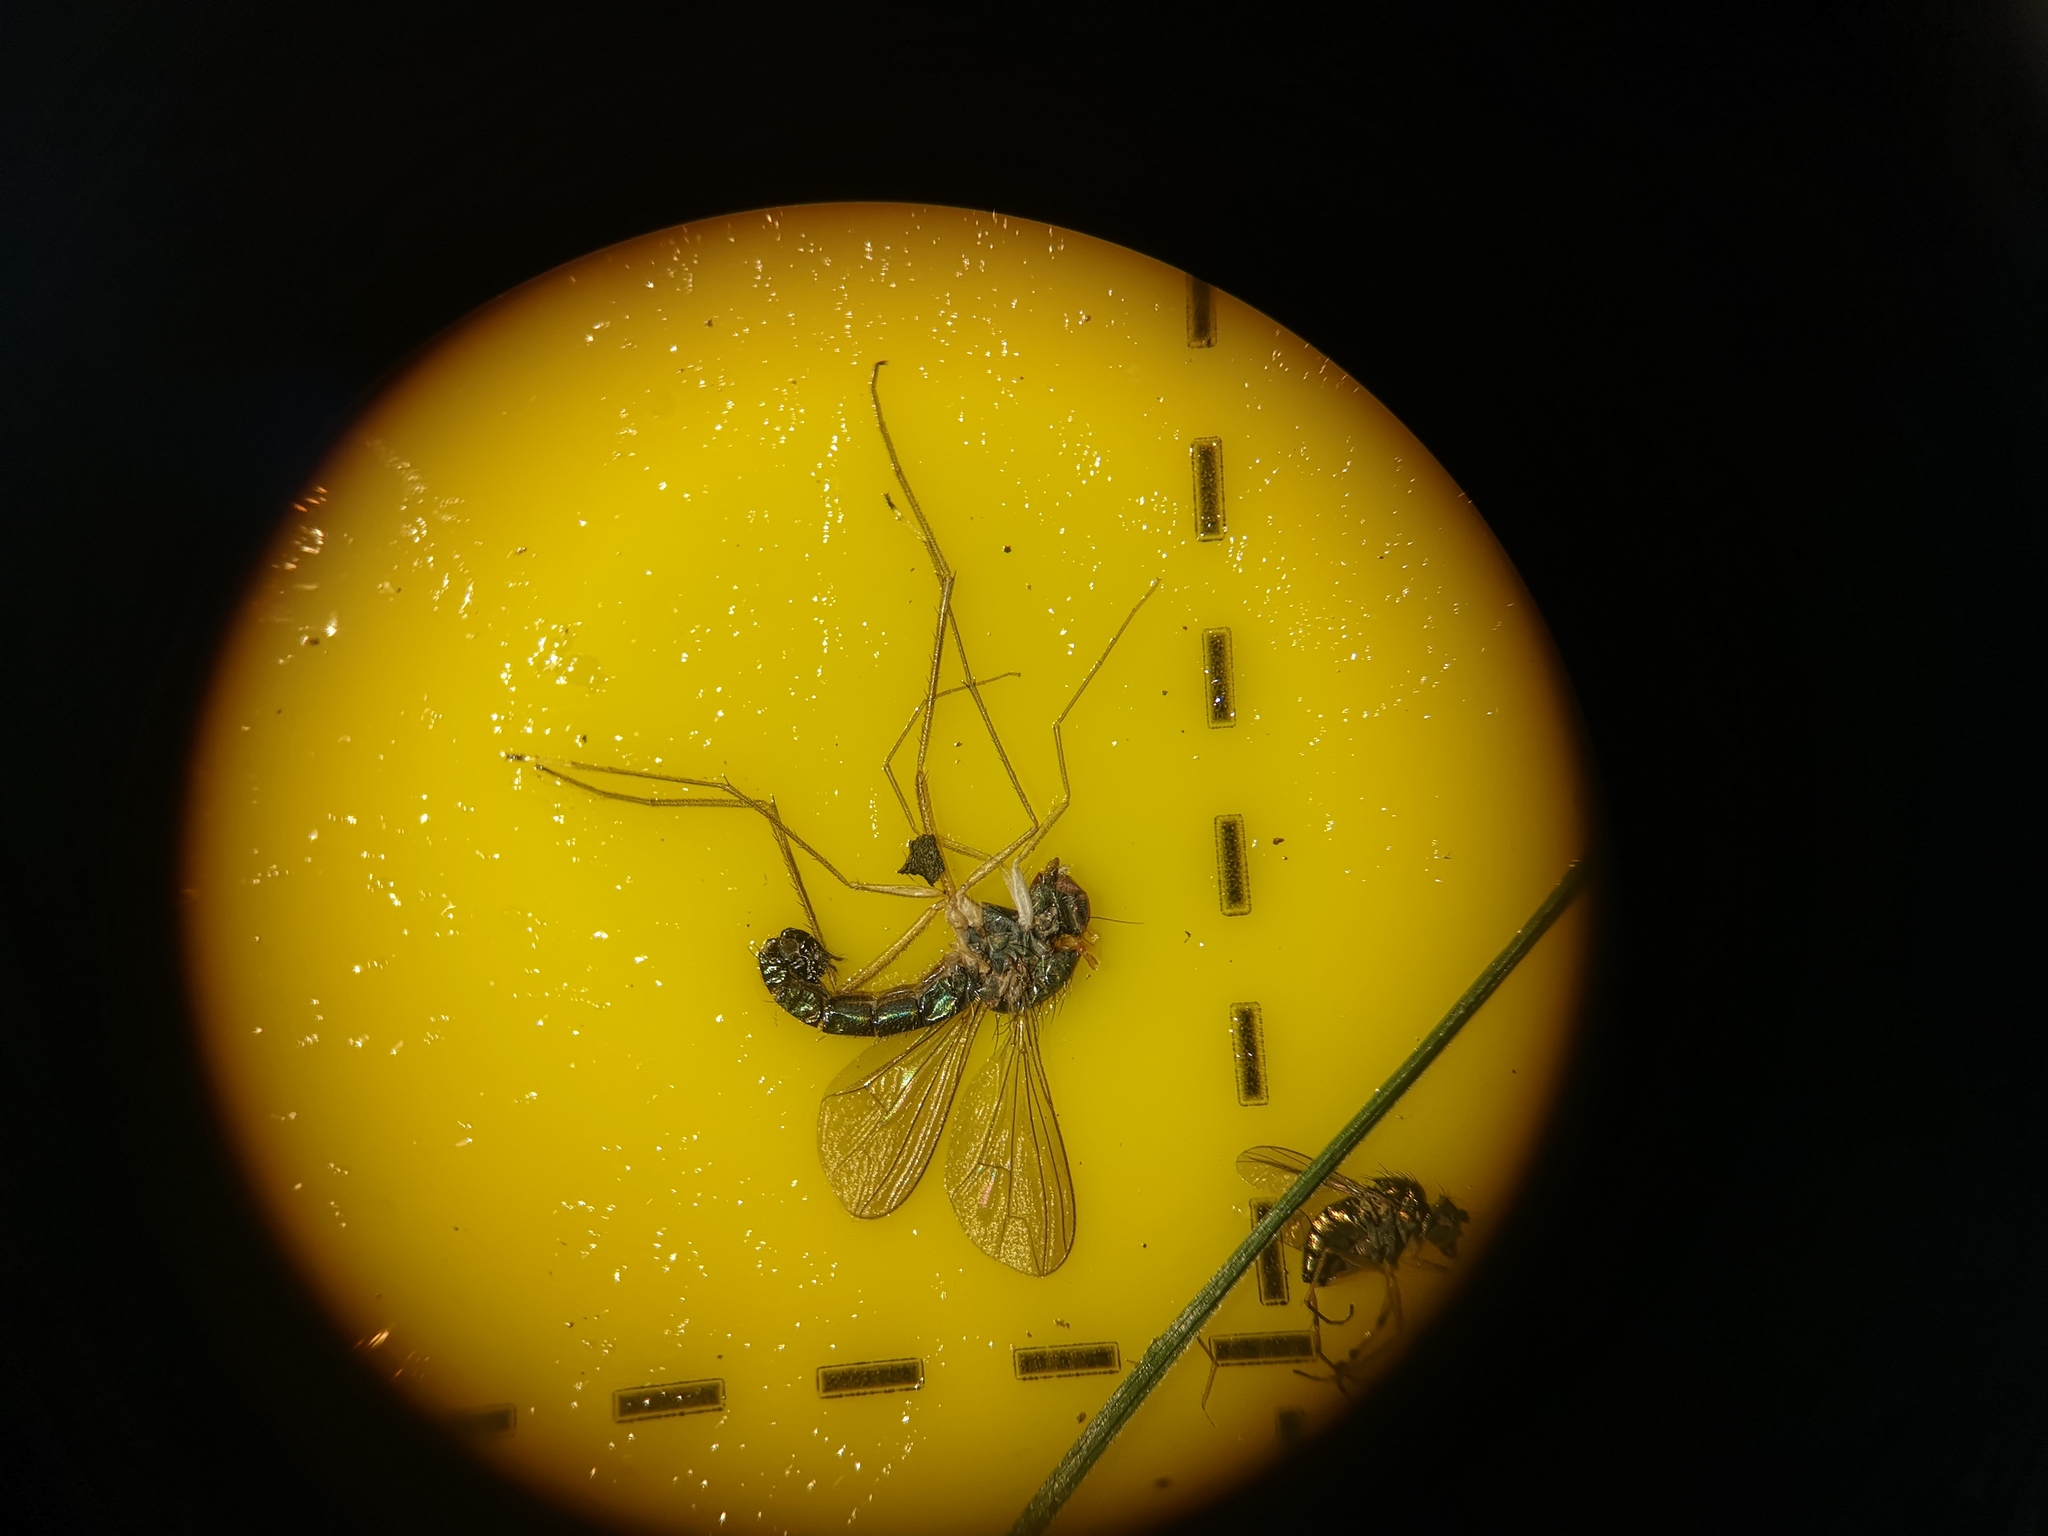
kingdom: Animalia
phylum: Arthropoda
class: Insecta
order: Diptera
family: Dolichopodidae
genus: Sciapus
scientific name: Sciapus platypterus
